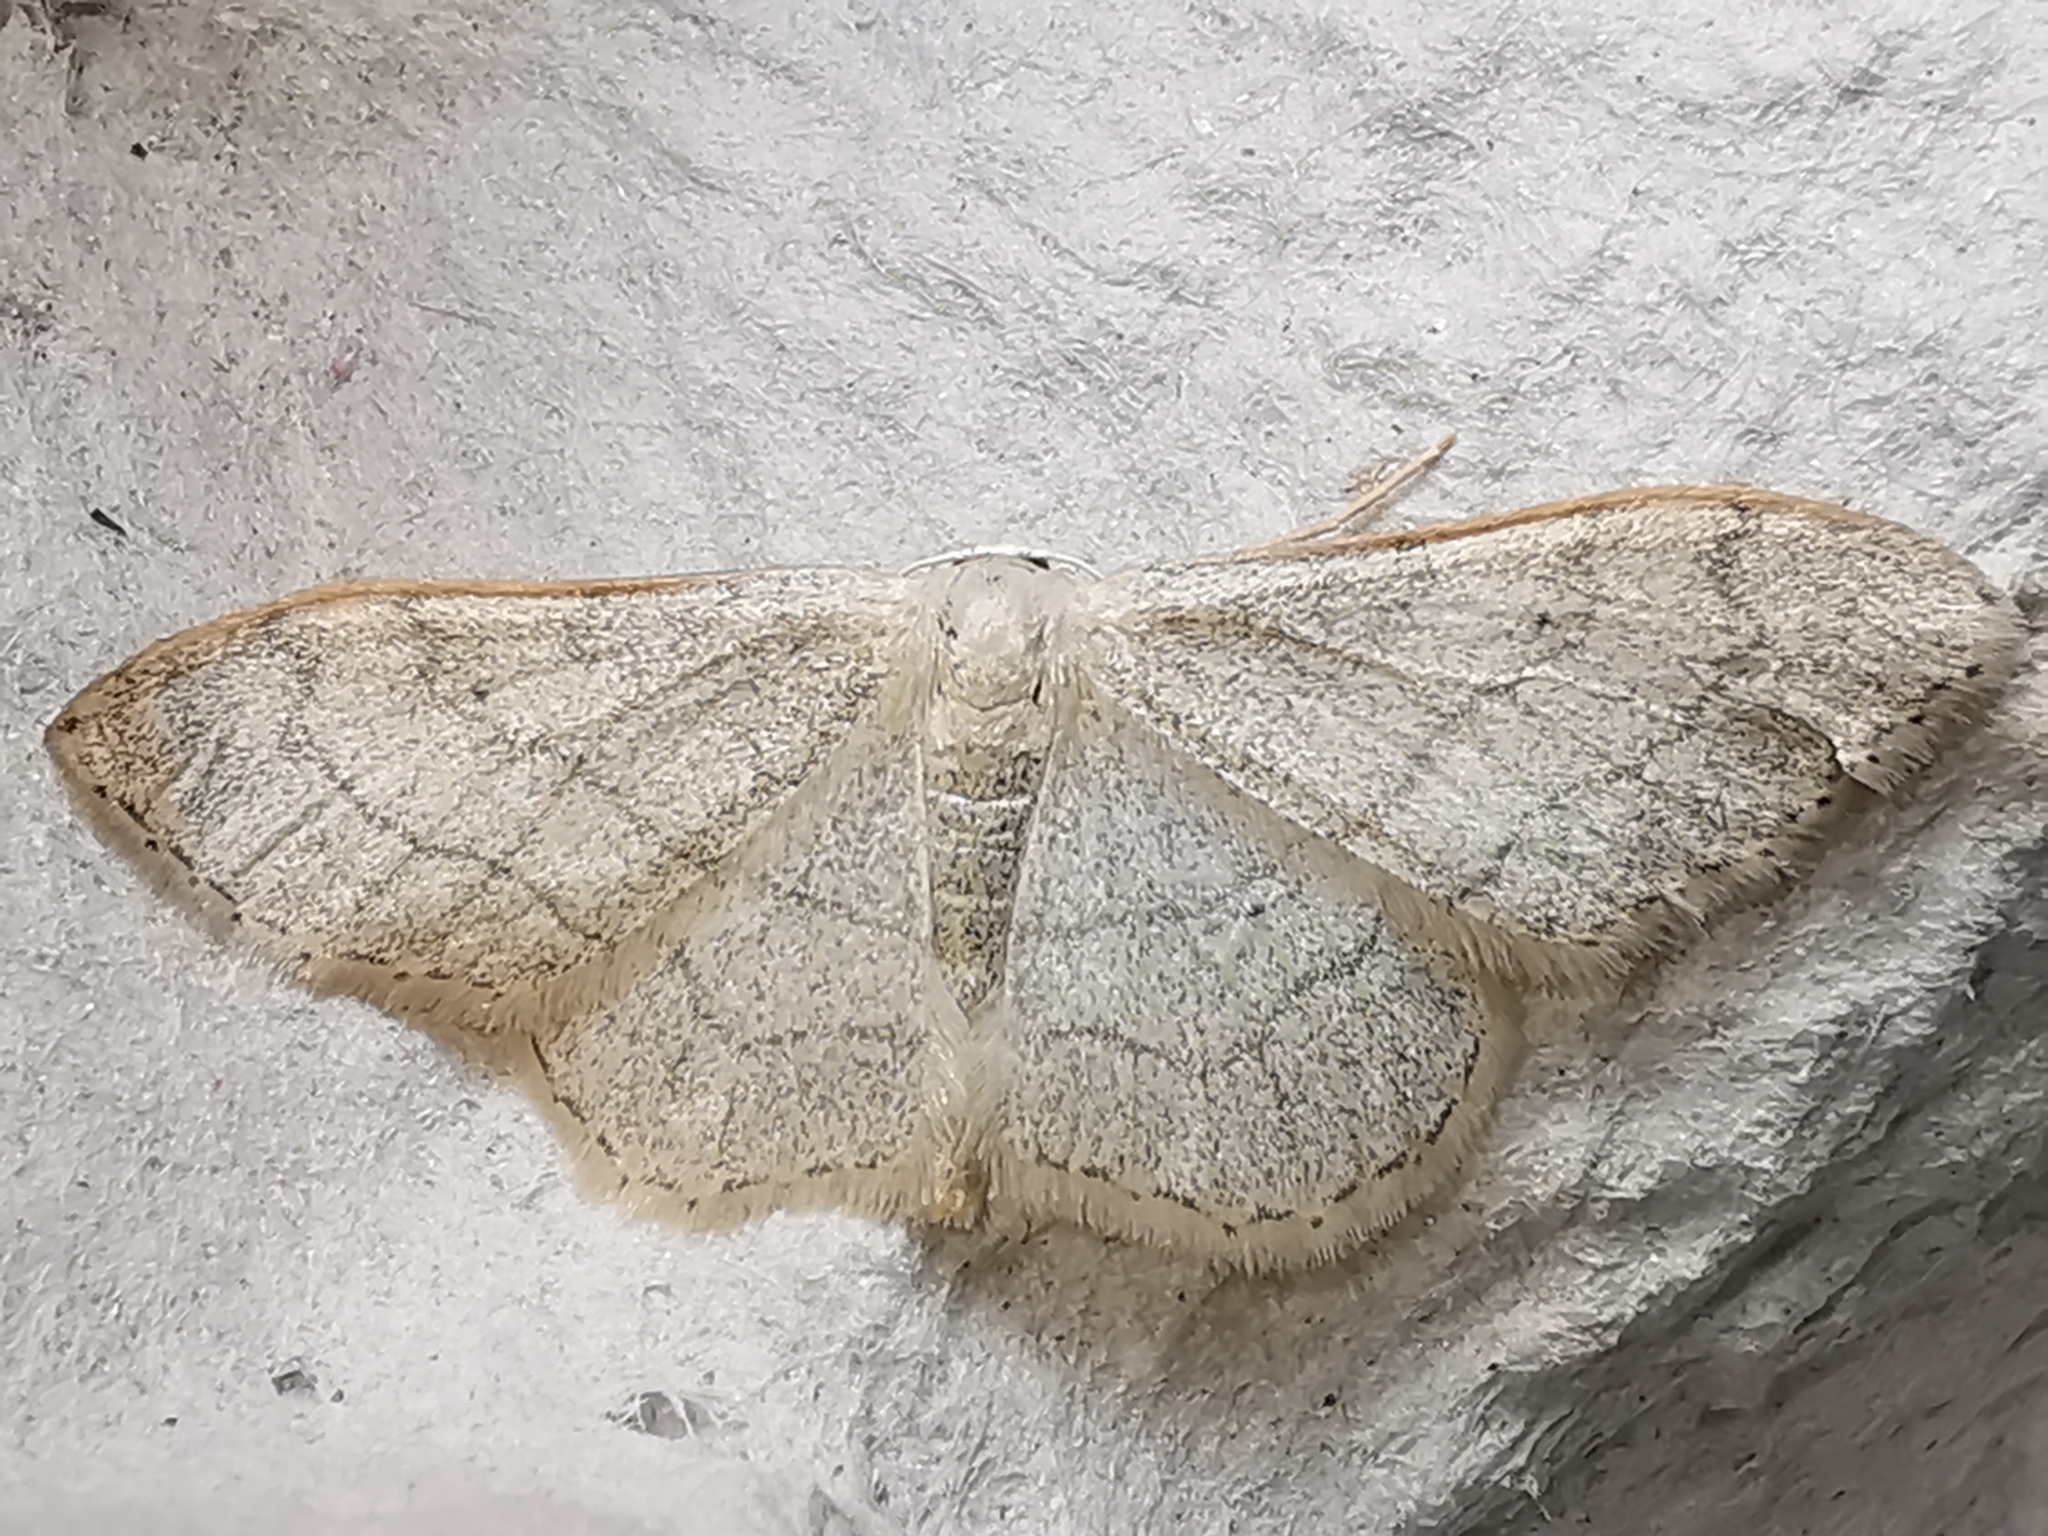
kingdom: Animalia
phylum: Arthropoda
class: Insecta
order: Lepidoptera
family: Geometridae
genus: Idaea
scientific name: Idaea aversata
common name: Riband wave
